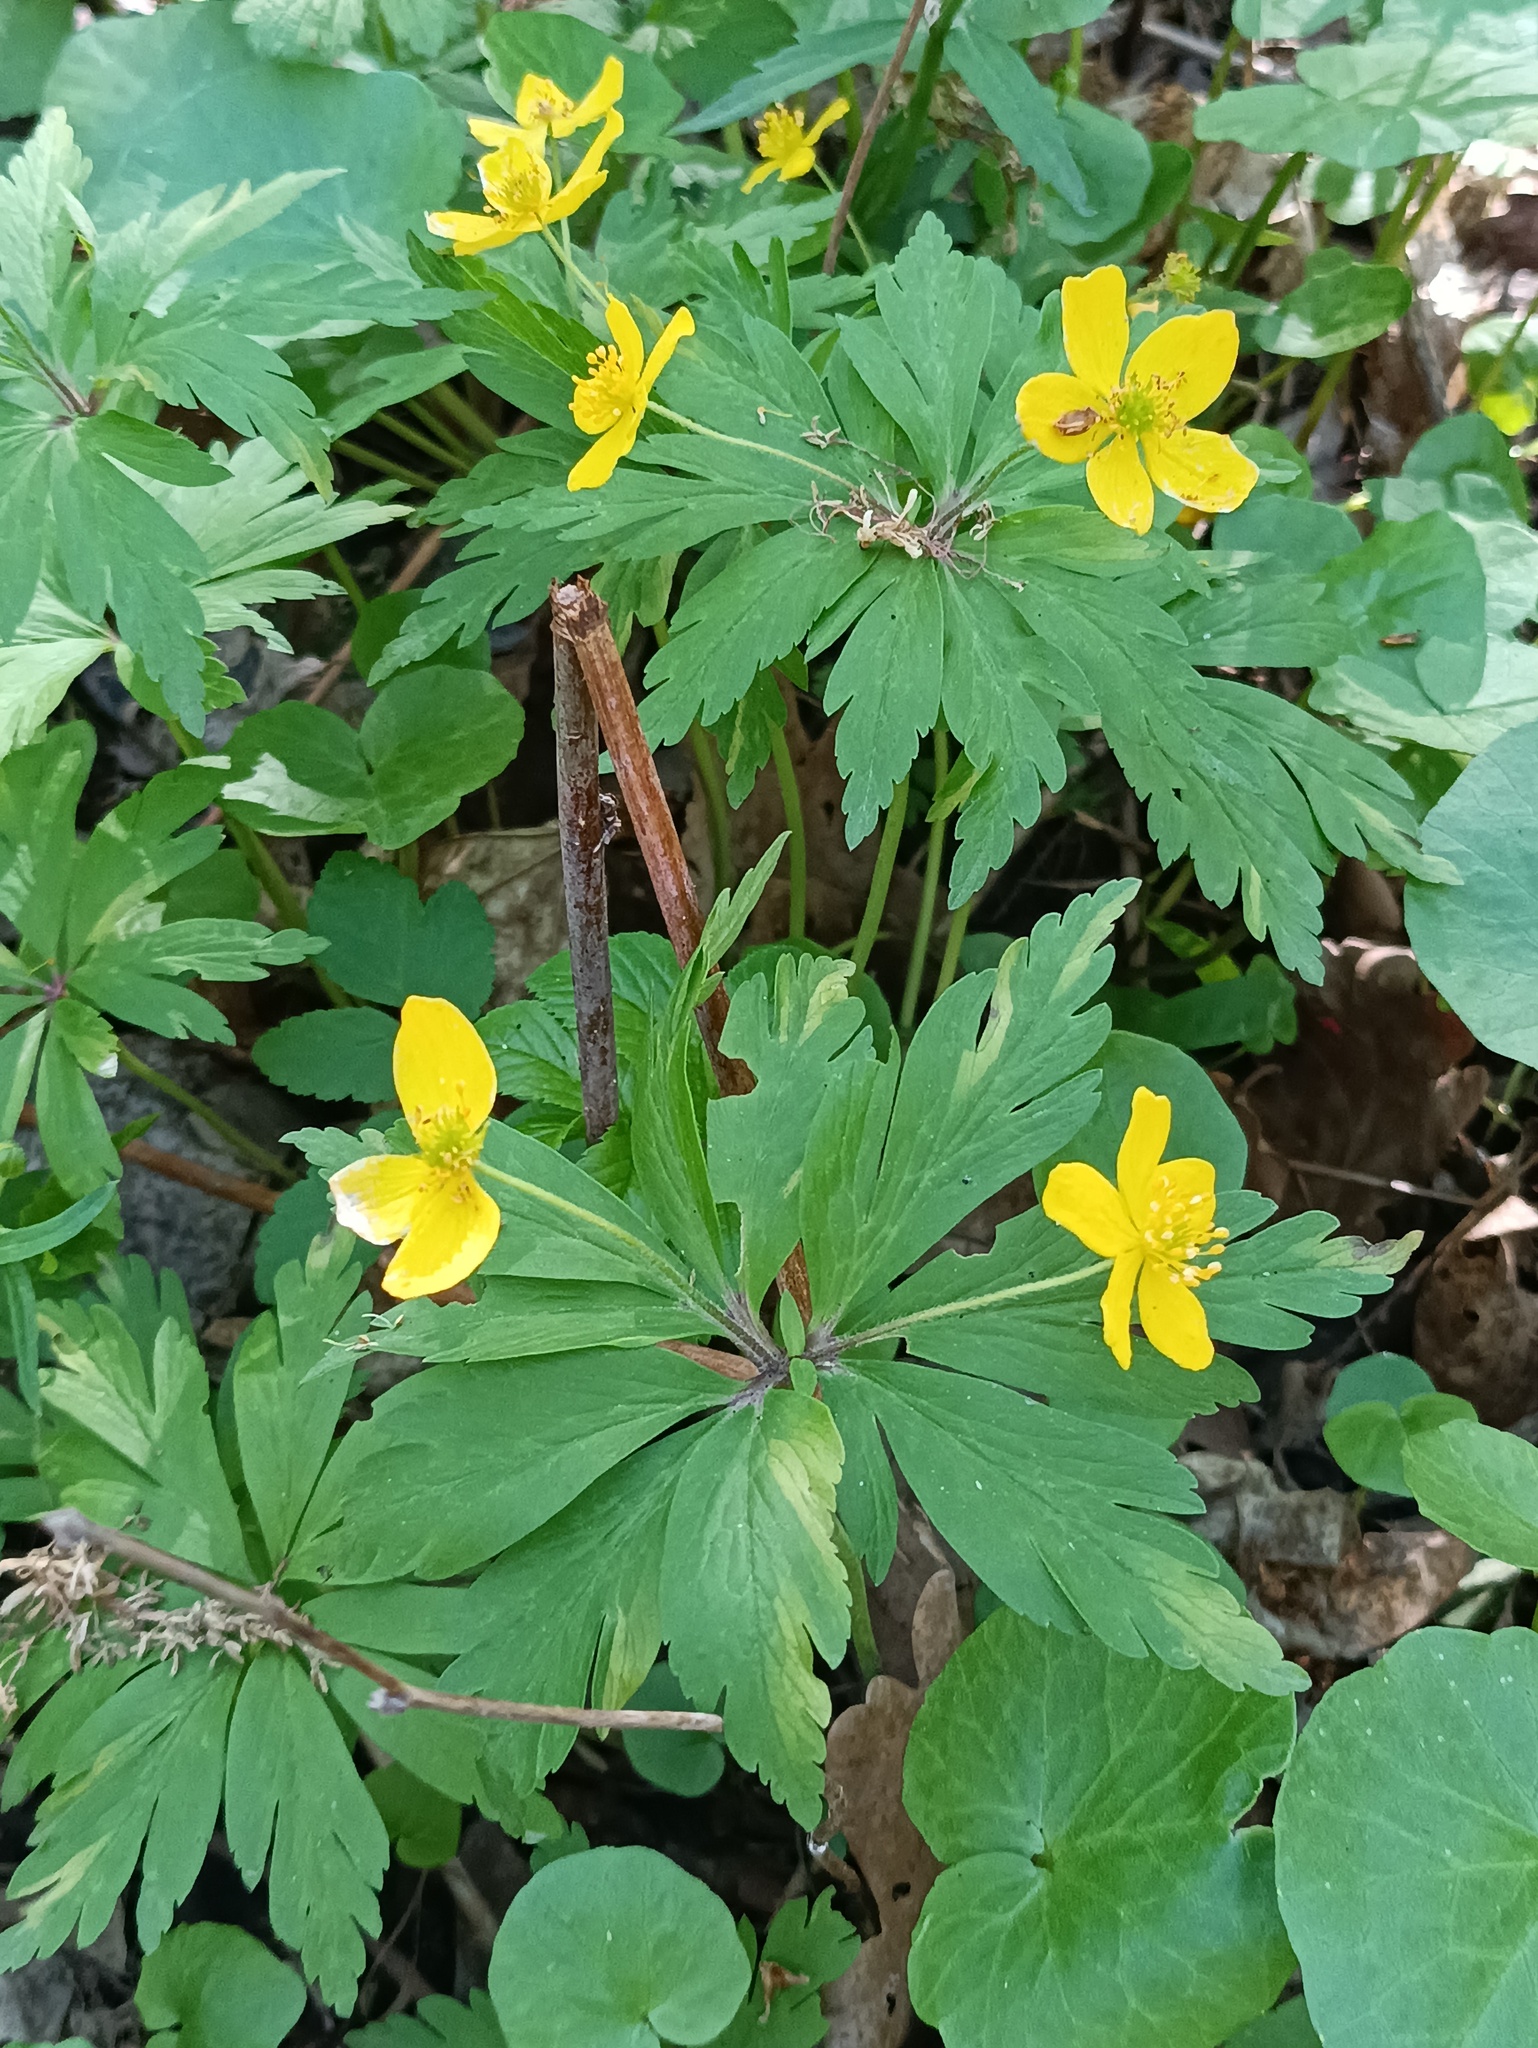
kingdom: Plantae
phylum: Tracheophyta
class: Magnoliopsida
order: Ranunculales
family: Ranunculaceae
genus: Anemone
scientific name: Anemone ranunculoides
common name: Yellow anemone
